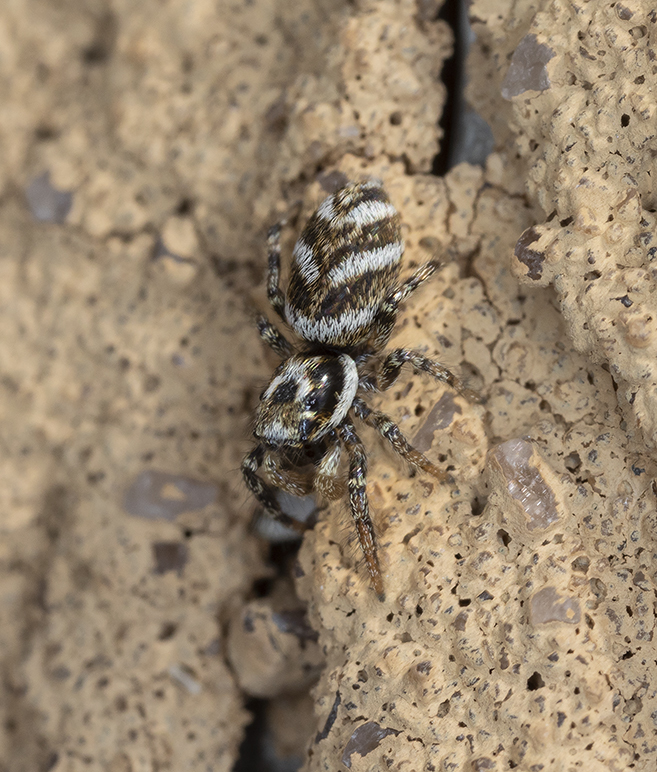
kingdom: Animalia
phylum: Arthropoda
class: Arachnida
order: Araneae
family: Salticidae
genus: Salticus
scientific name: Salticus scenicus
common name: Zebra jumper
